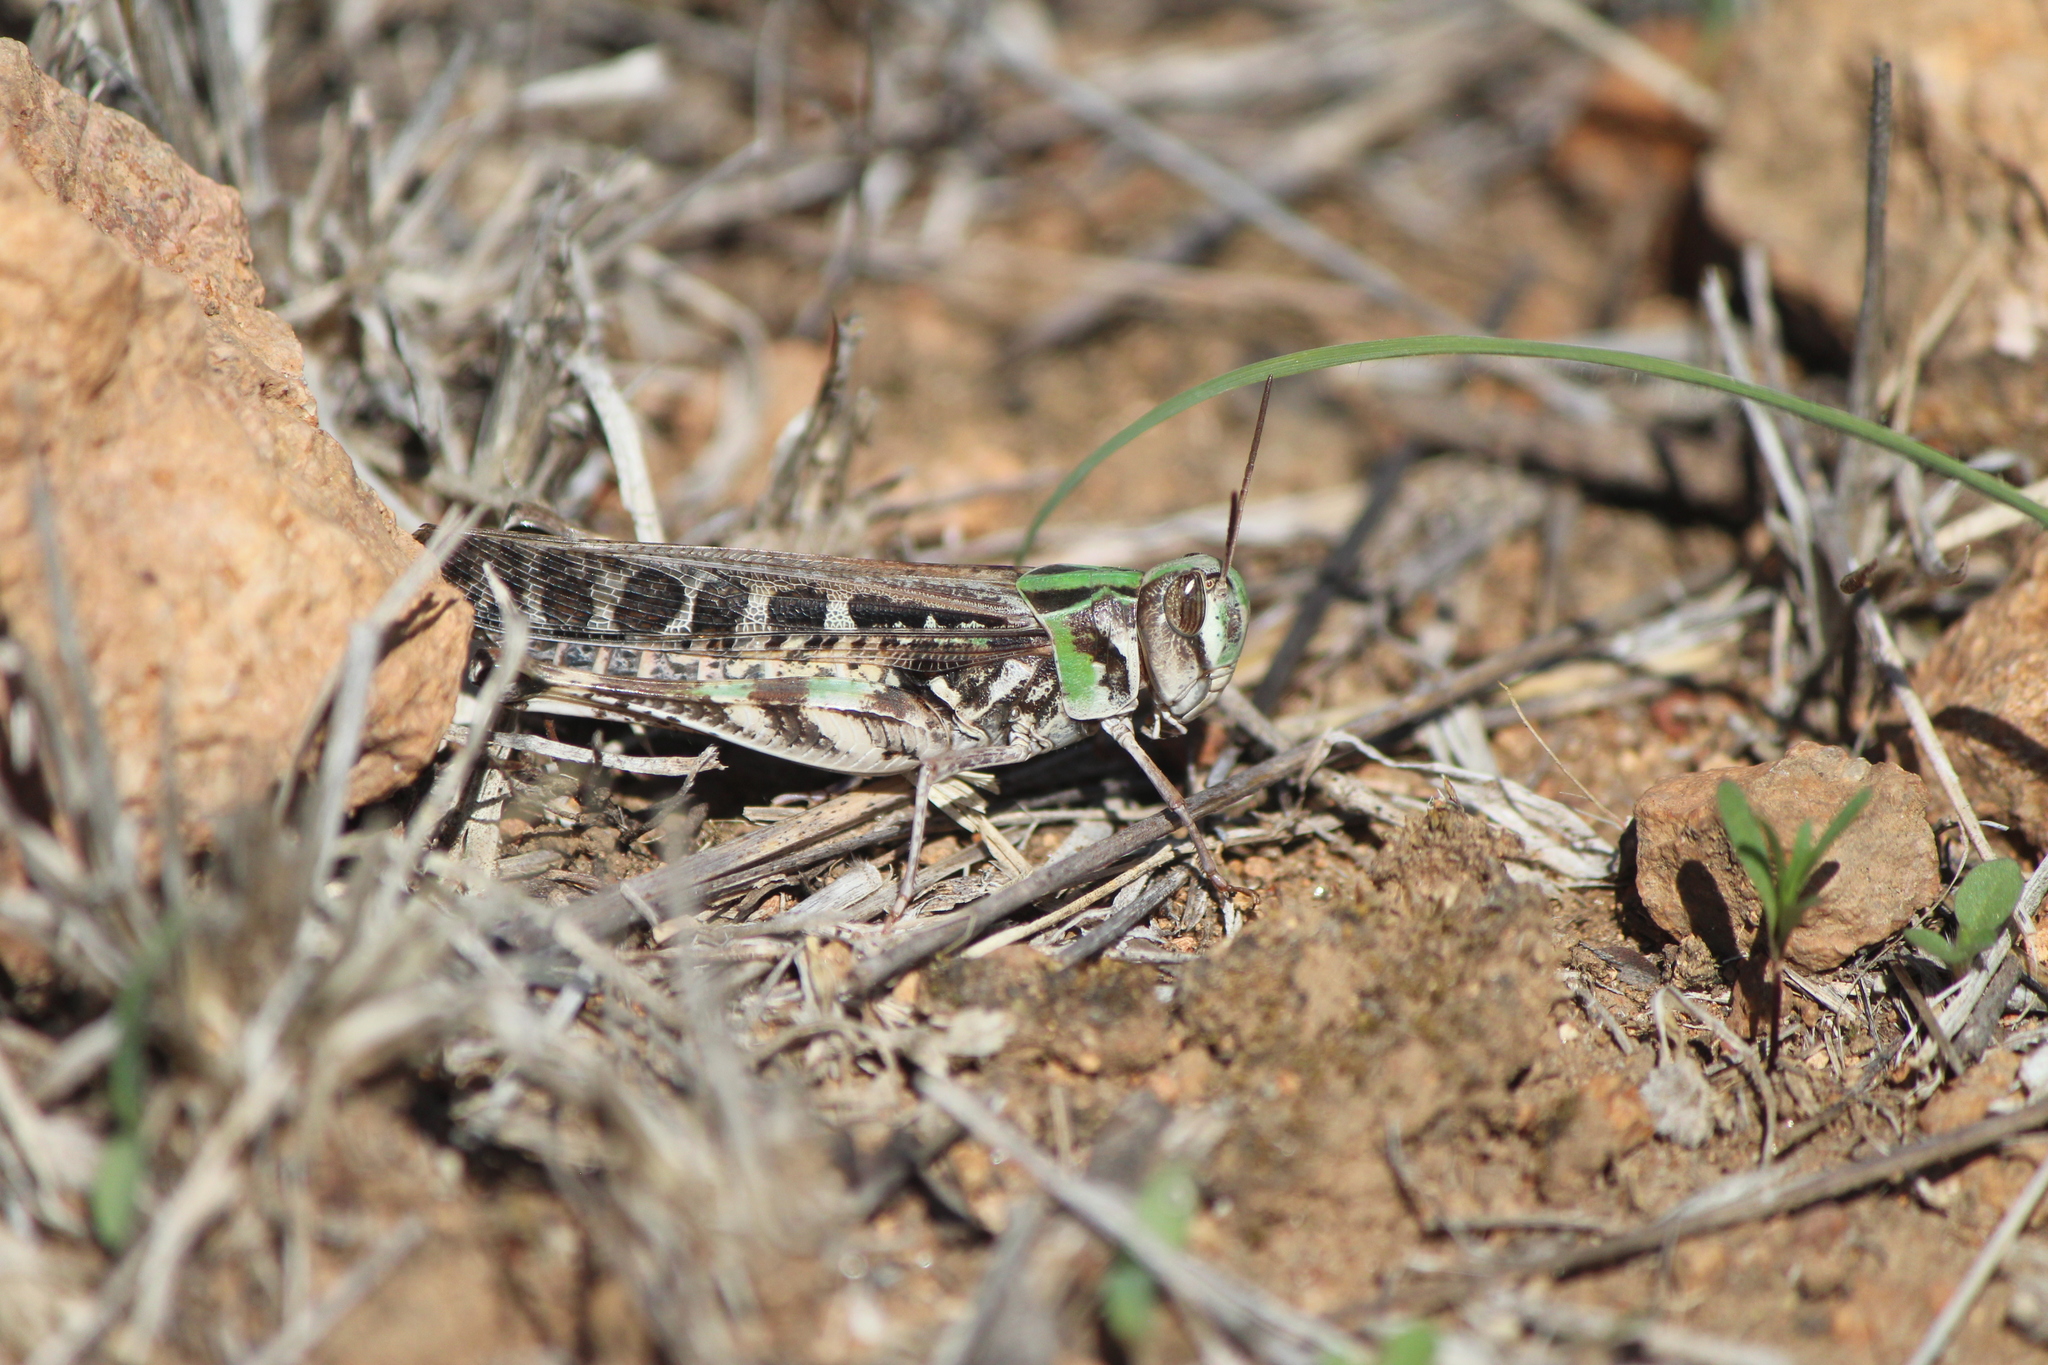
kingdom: Animalia
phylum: Arthropoda
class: Insecta
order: Orthoptera
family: Acrididae
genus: Rhammatocerus
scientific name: Rhammatocerus viatorius
